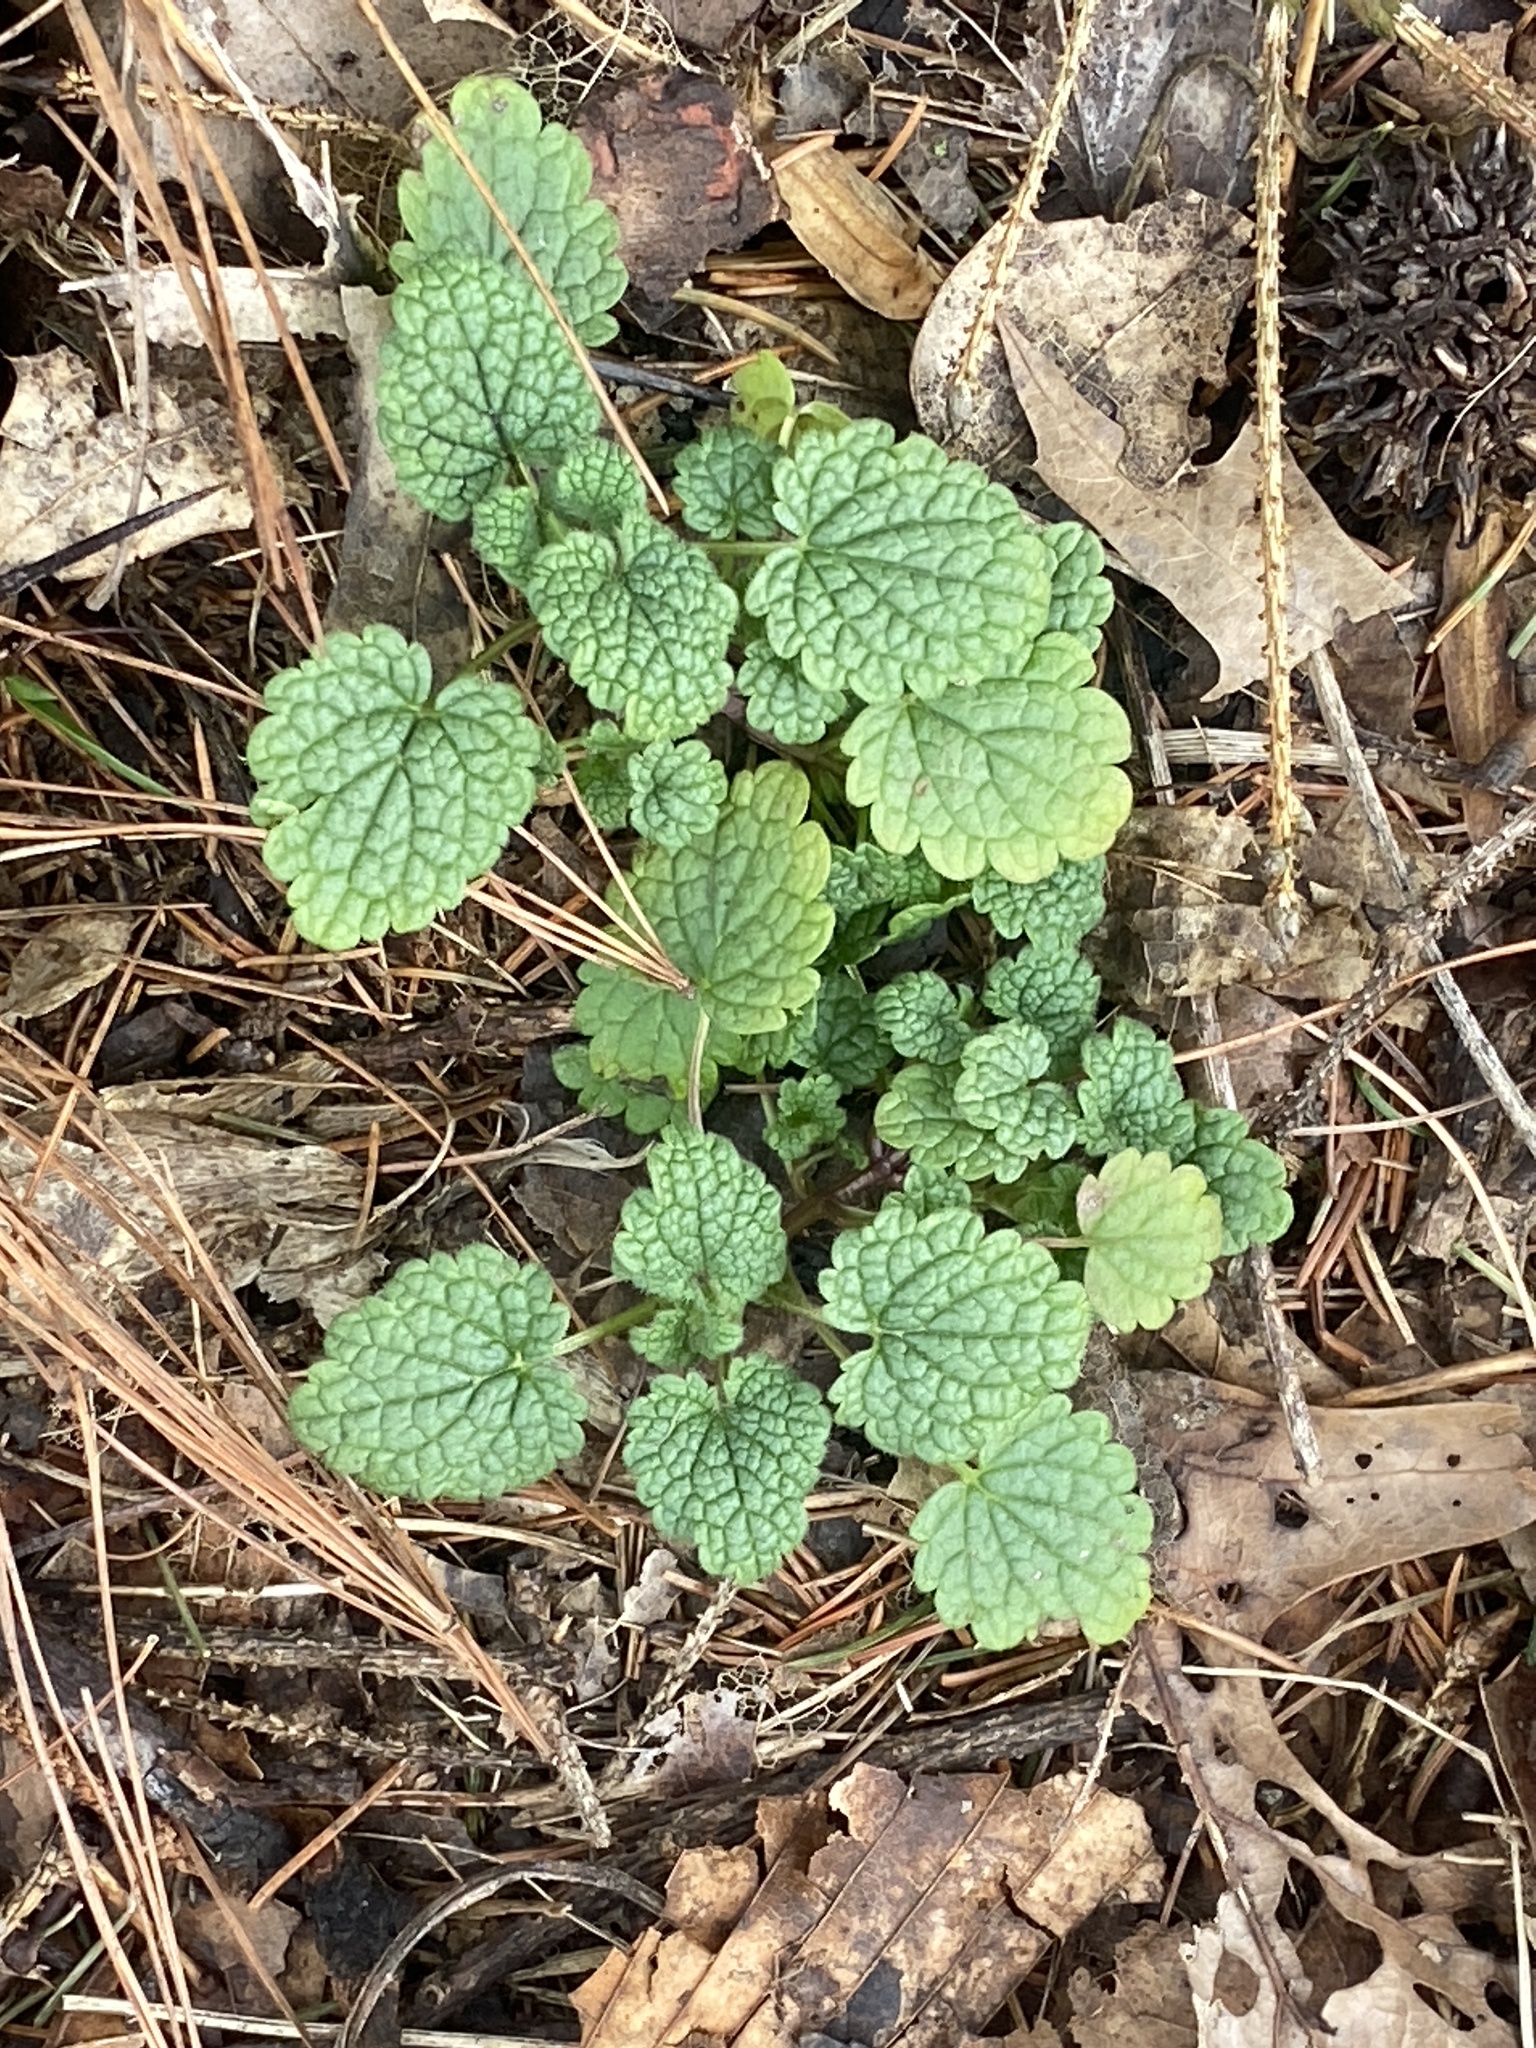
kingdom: Plantae
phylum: Tracheophyta
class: Magnoliopsida
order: Lamiales
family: Lamiaceae
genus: Lamium
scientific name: Lamium purpureum
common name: Red dead-nettle
